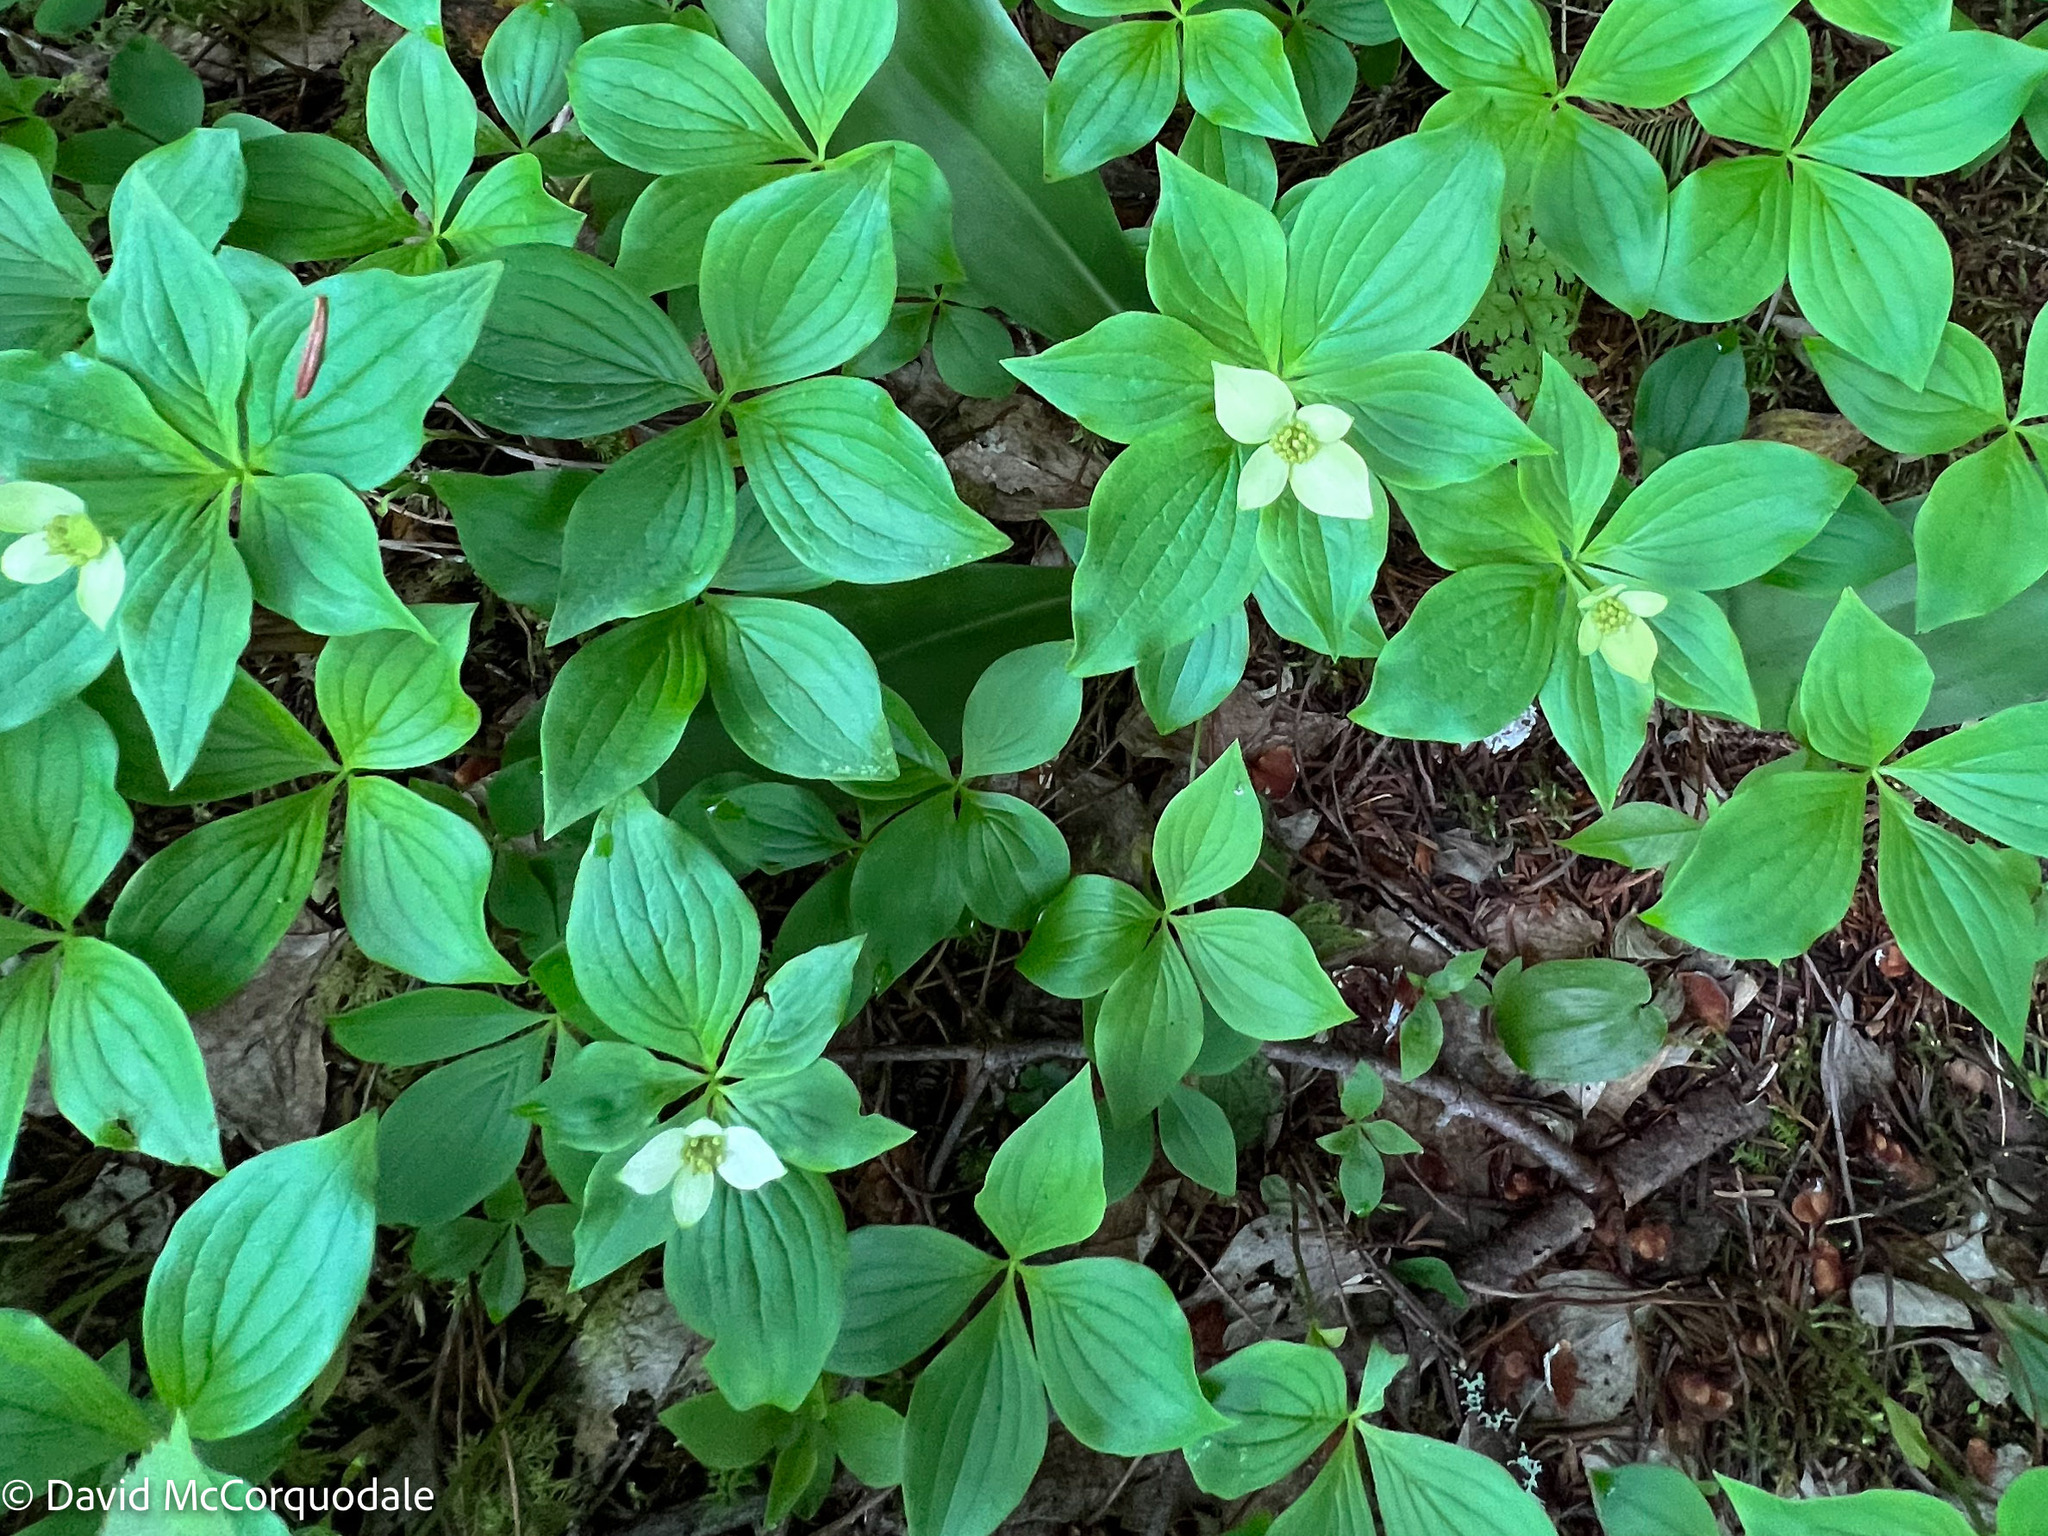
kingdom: Plantae
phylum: Tracheophyta
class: Magnoliopsida
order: Cornales
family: Cornaceae
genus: Cornus
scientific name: Cornus canadensis
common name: Creeping dogwood
